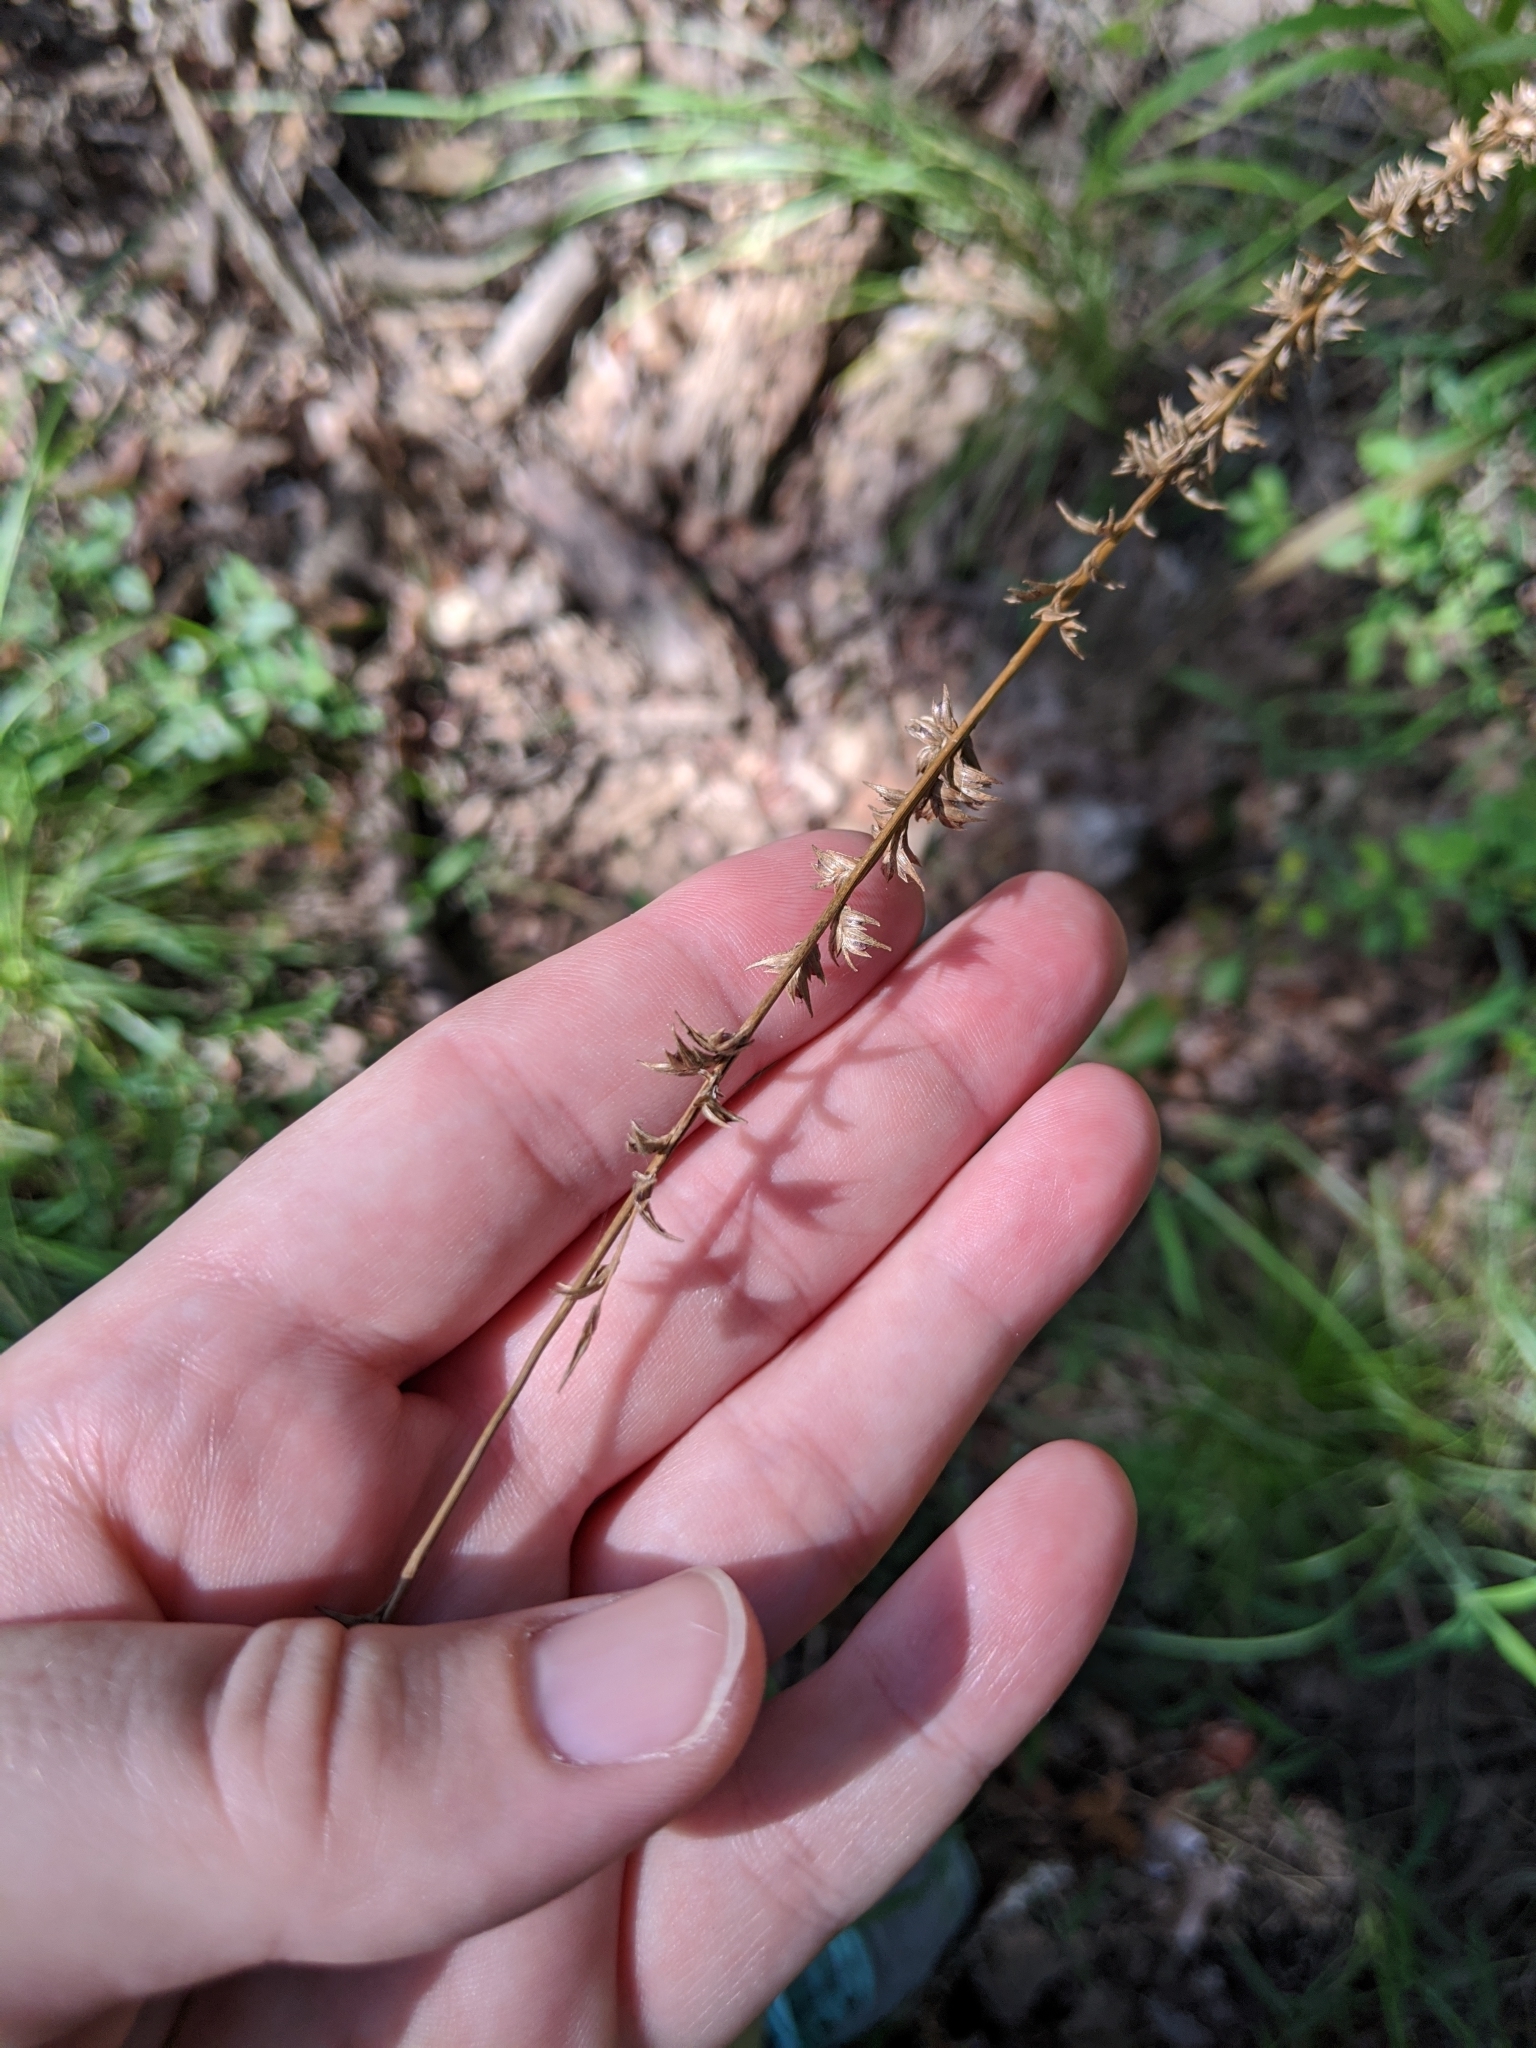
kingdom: Plantae
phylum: Tracheophyta
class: Liliopsida
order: Poales
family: Poaceae
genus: Chasmanthium
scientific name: Chasmanthium laxum
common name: Slender chasmanthium
